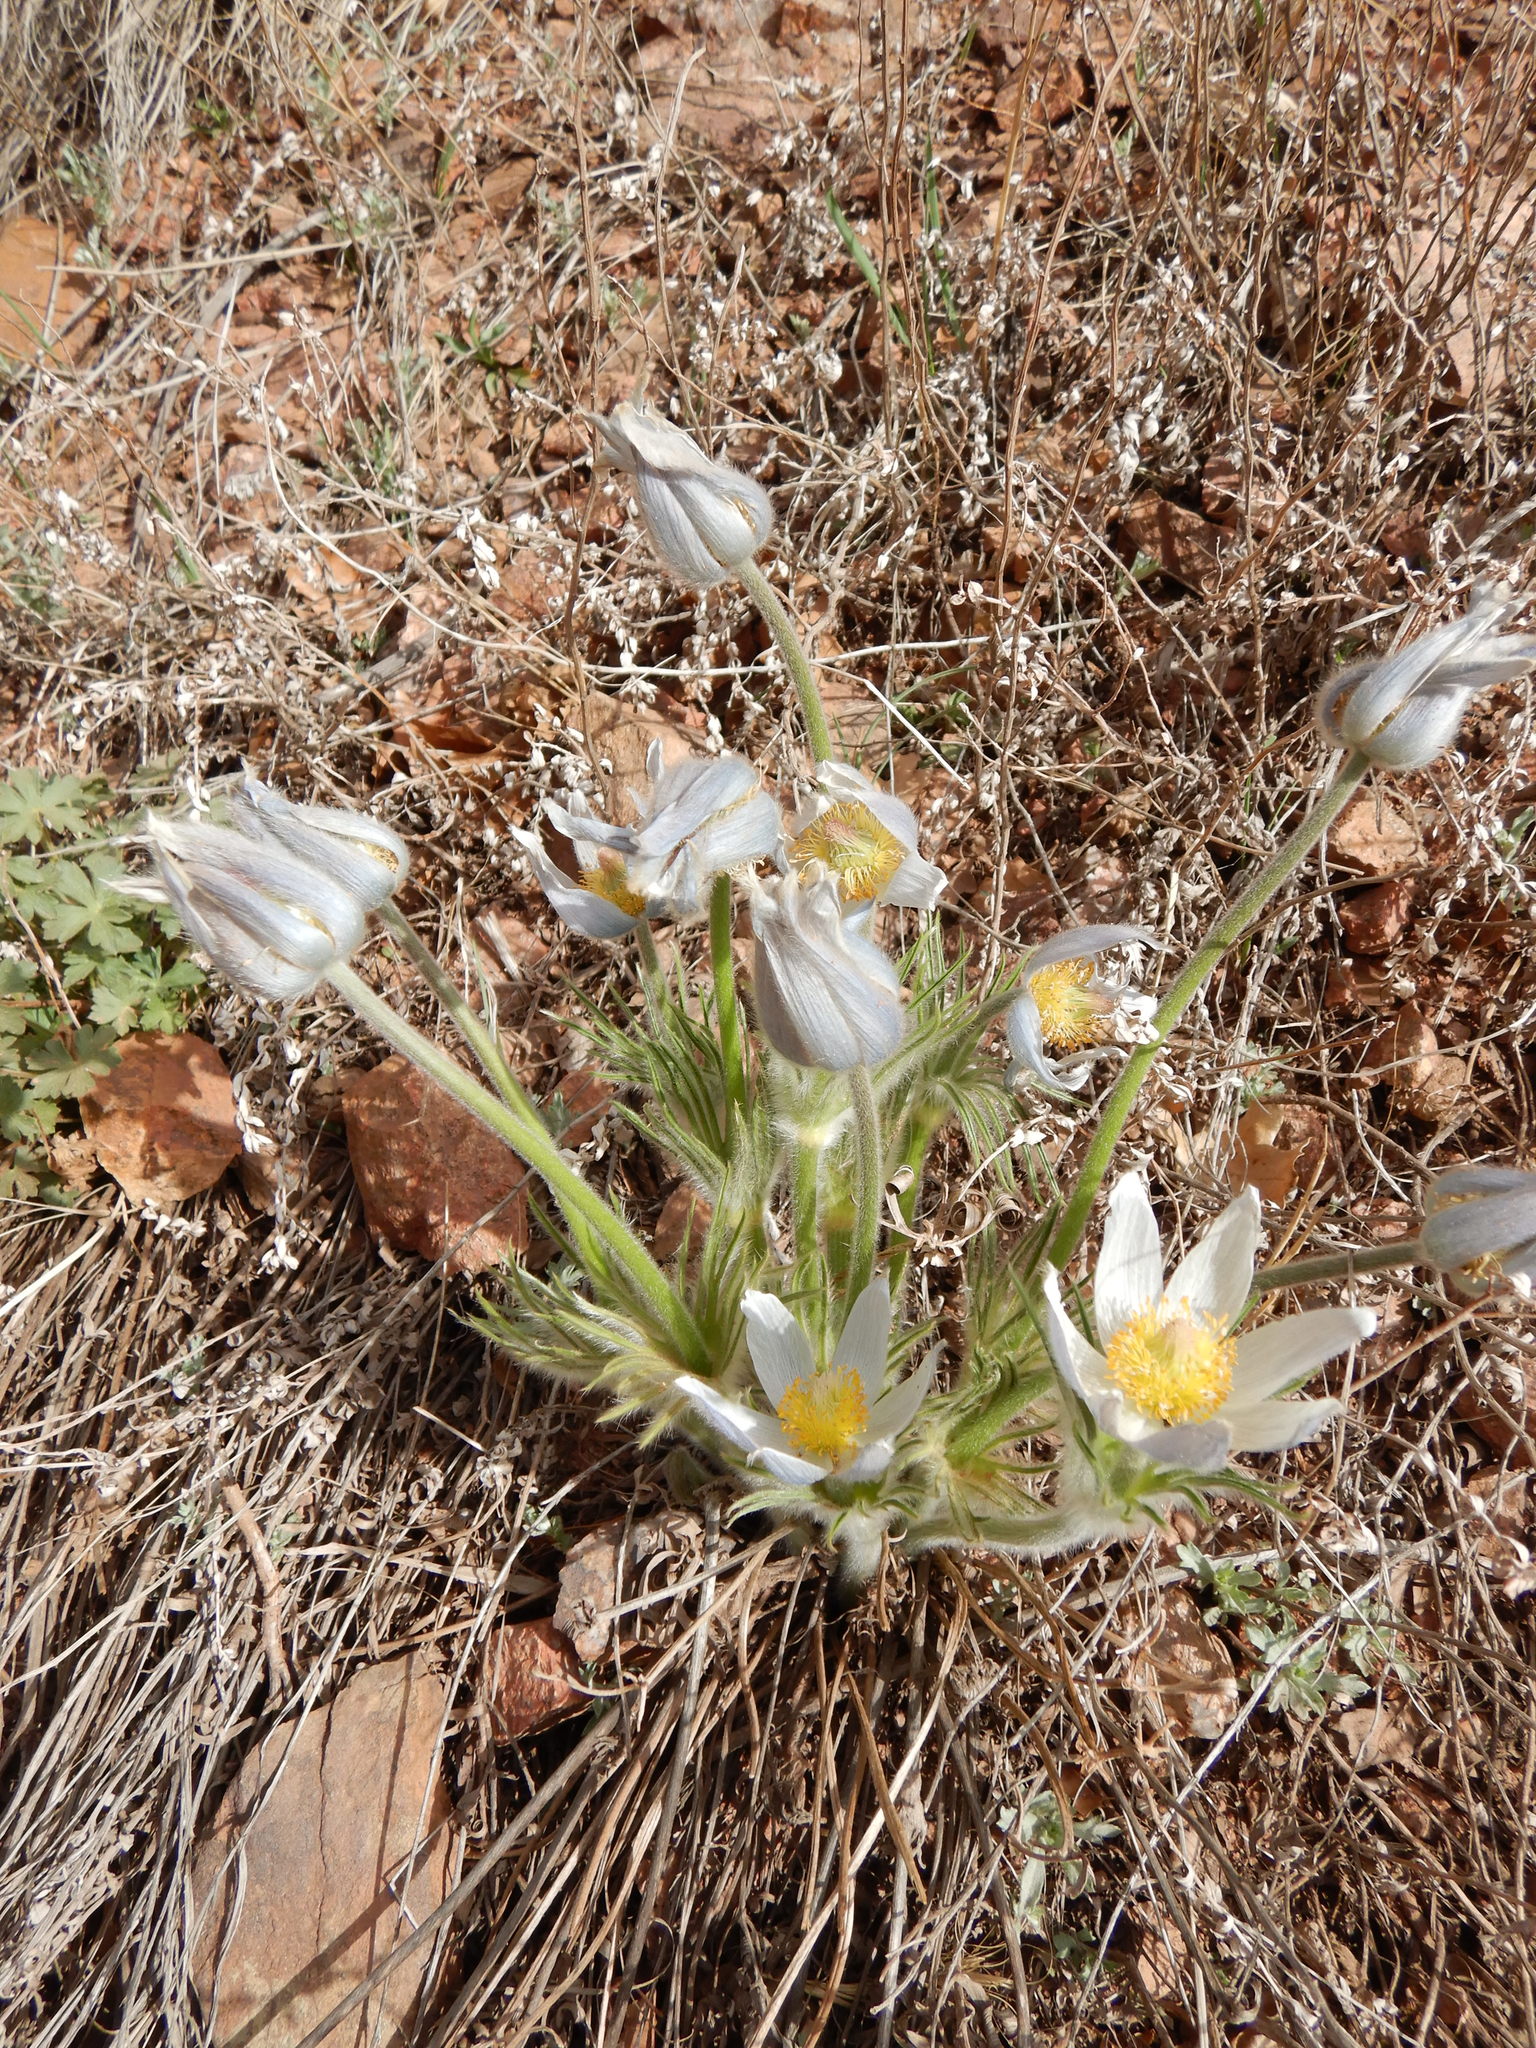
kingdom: Plantae
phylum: Tracheophyta
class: Magnoliopsida
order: Ranunculales
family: Ranunculaceae
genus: Pulsatilla
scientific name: Pulsatilla nuttalliana
